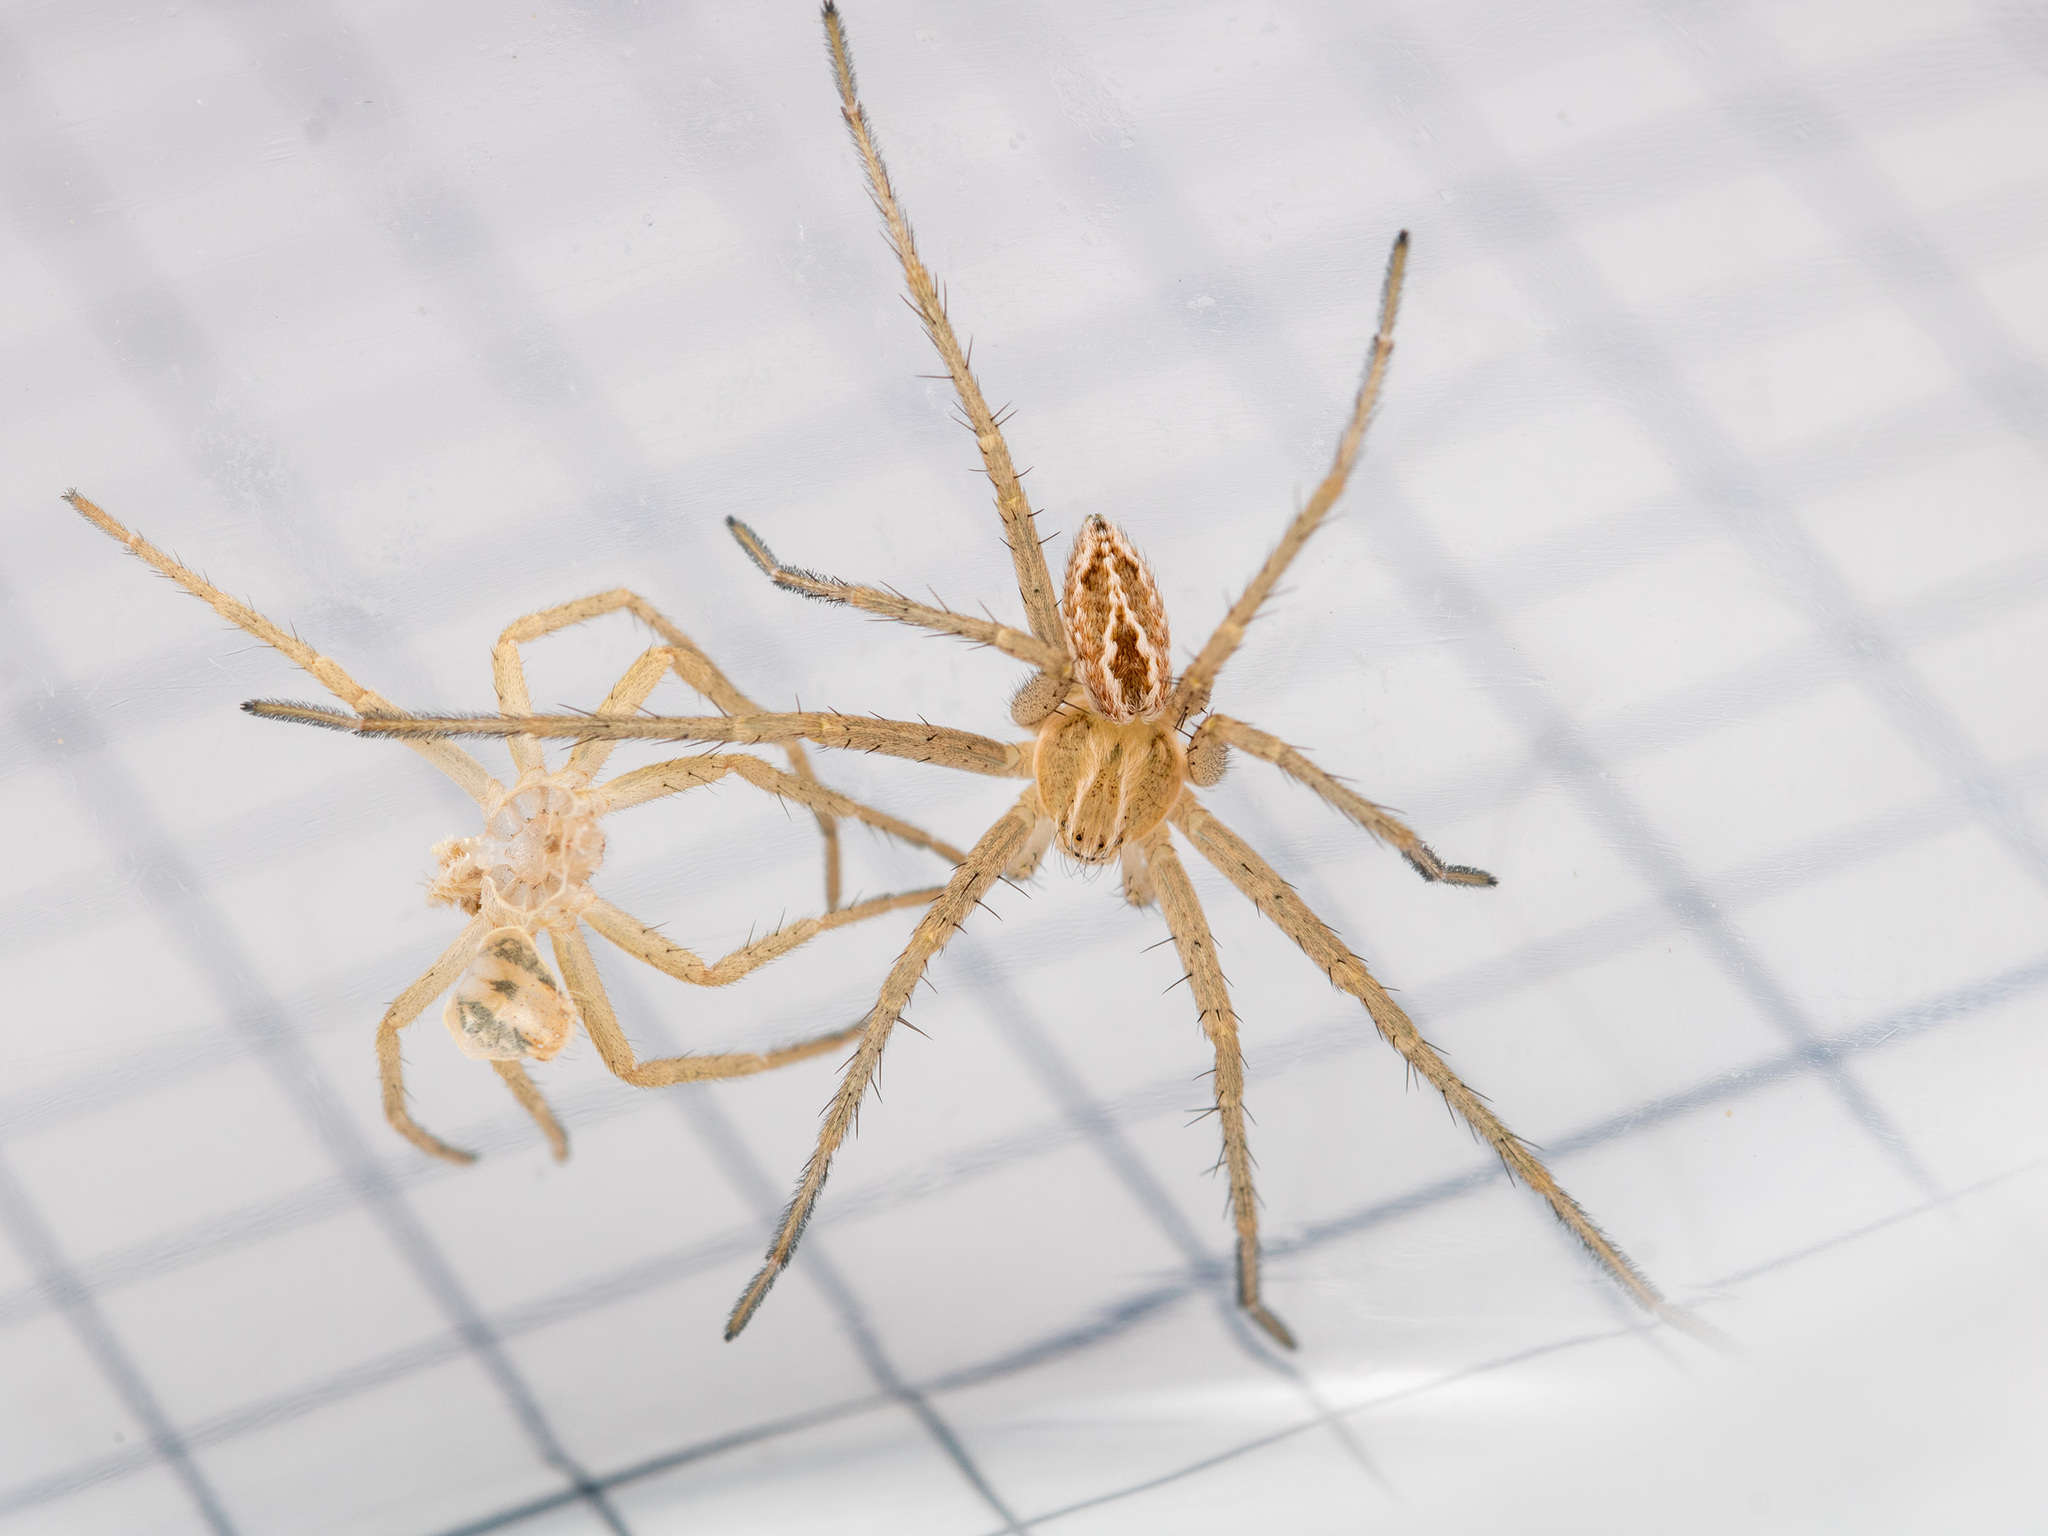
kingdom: Animalia
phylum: Arthropoda
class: Arachnida
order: Araneae
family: Philodromidae
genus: Thanatus
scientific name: Thanatus vulgaris
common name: European running crab spider
